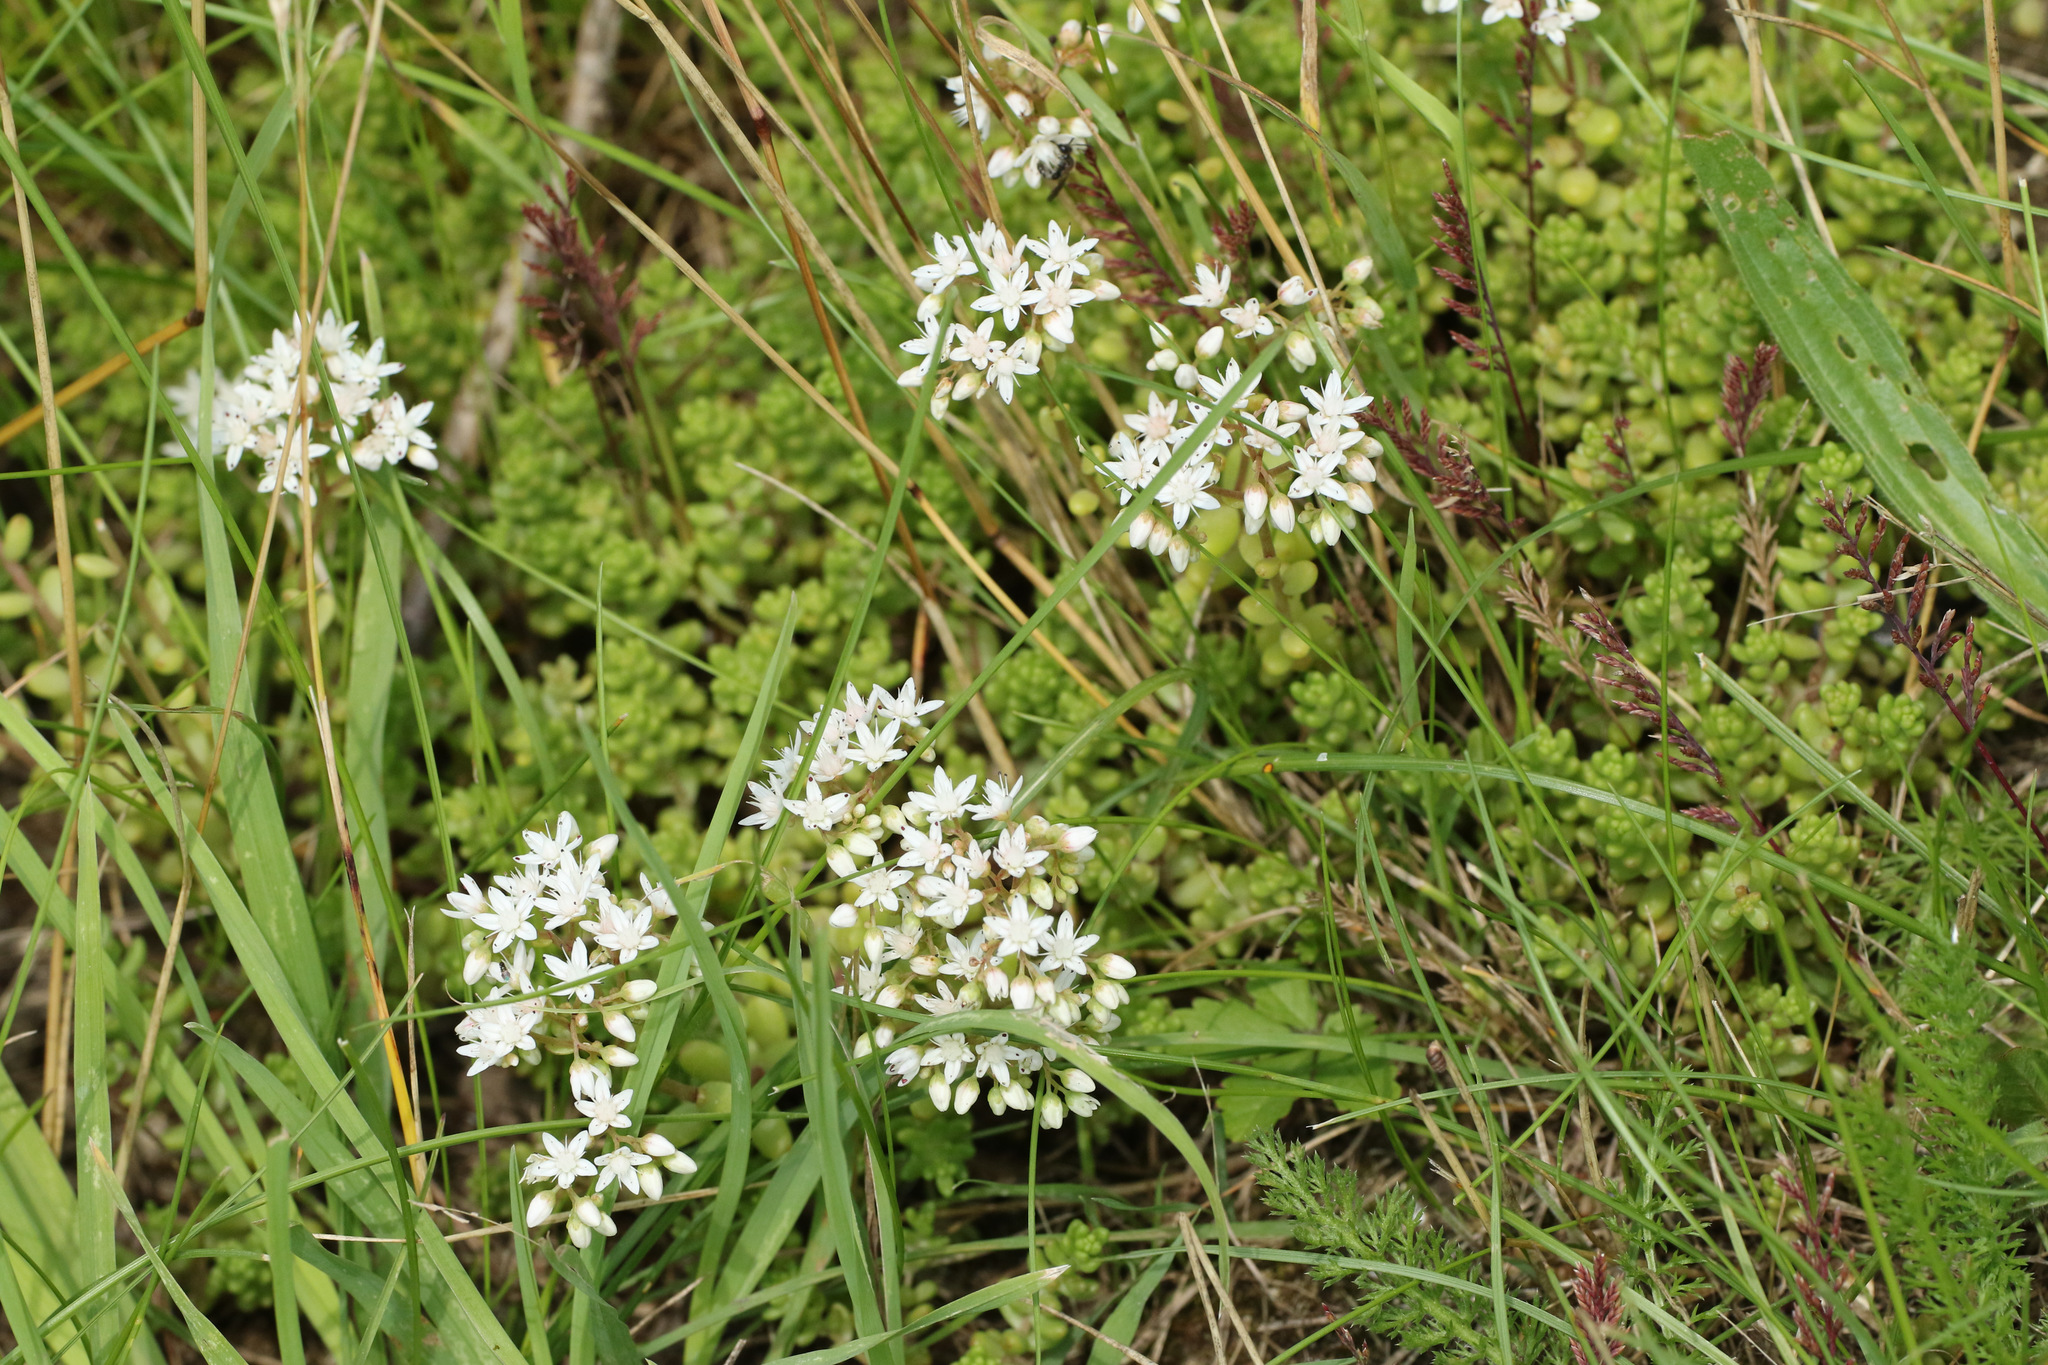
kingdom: Plantae
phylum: Tracheophyta
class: Magnoliopsida
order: Saxifragales
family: Crassulaceae
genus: Sedum
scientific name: Sedum album
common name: White stonecrop
